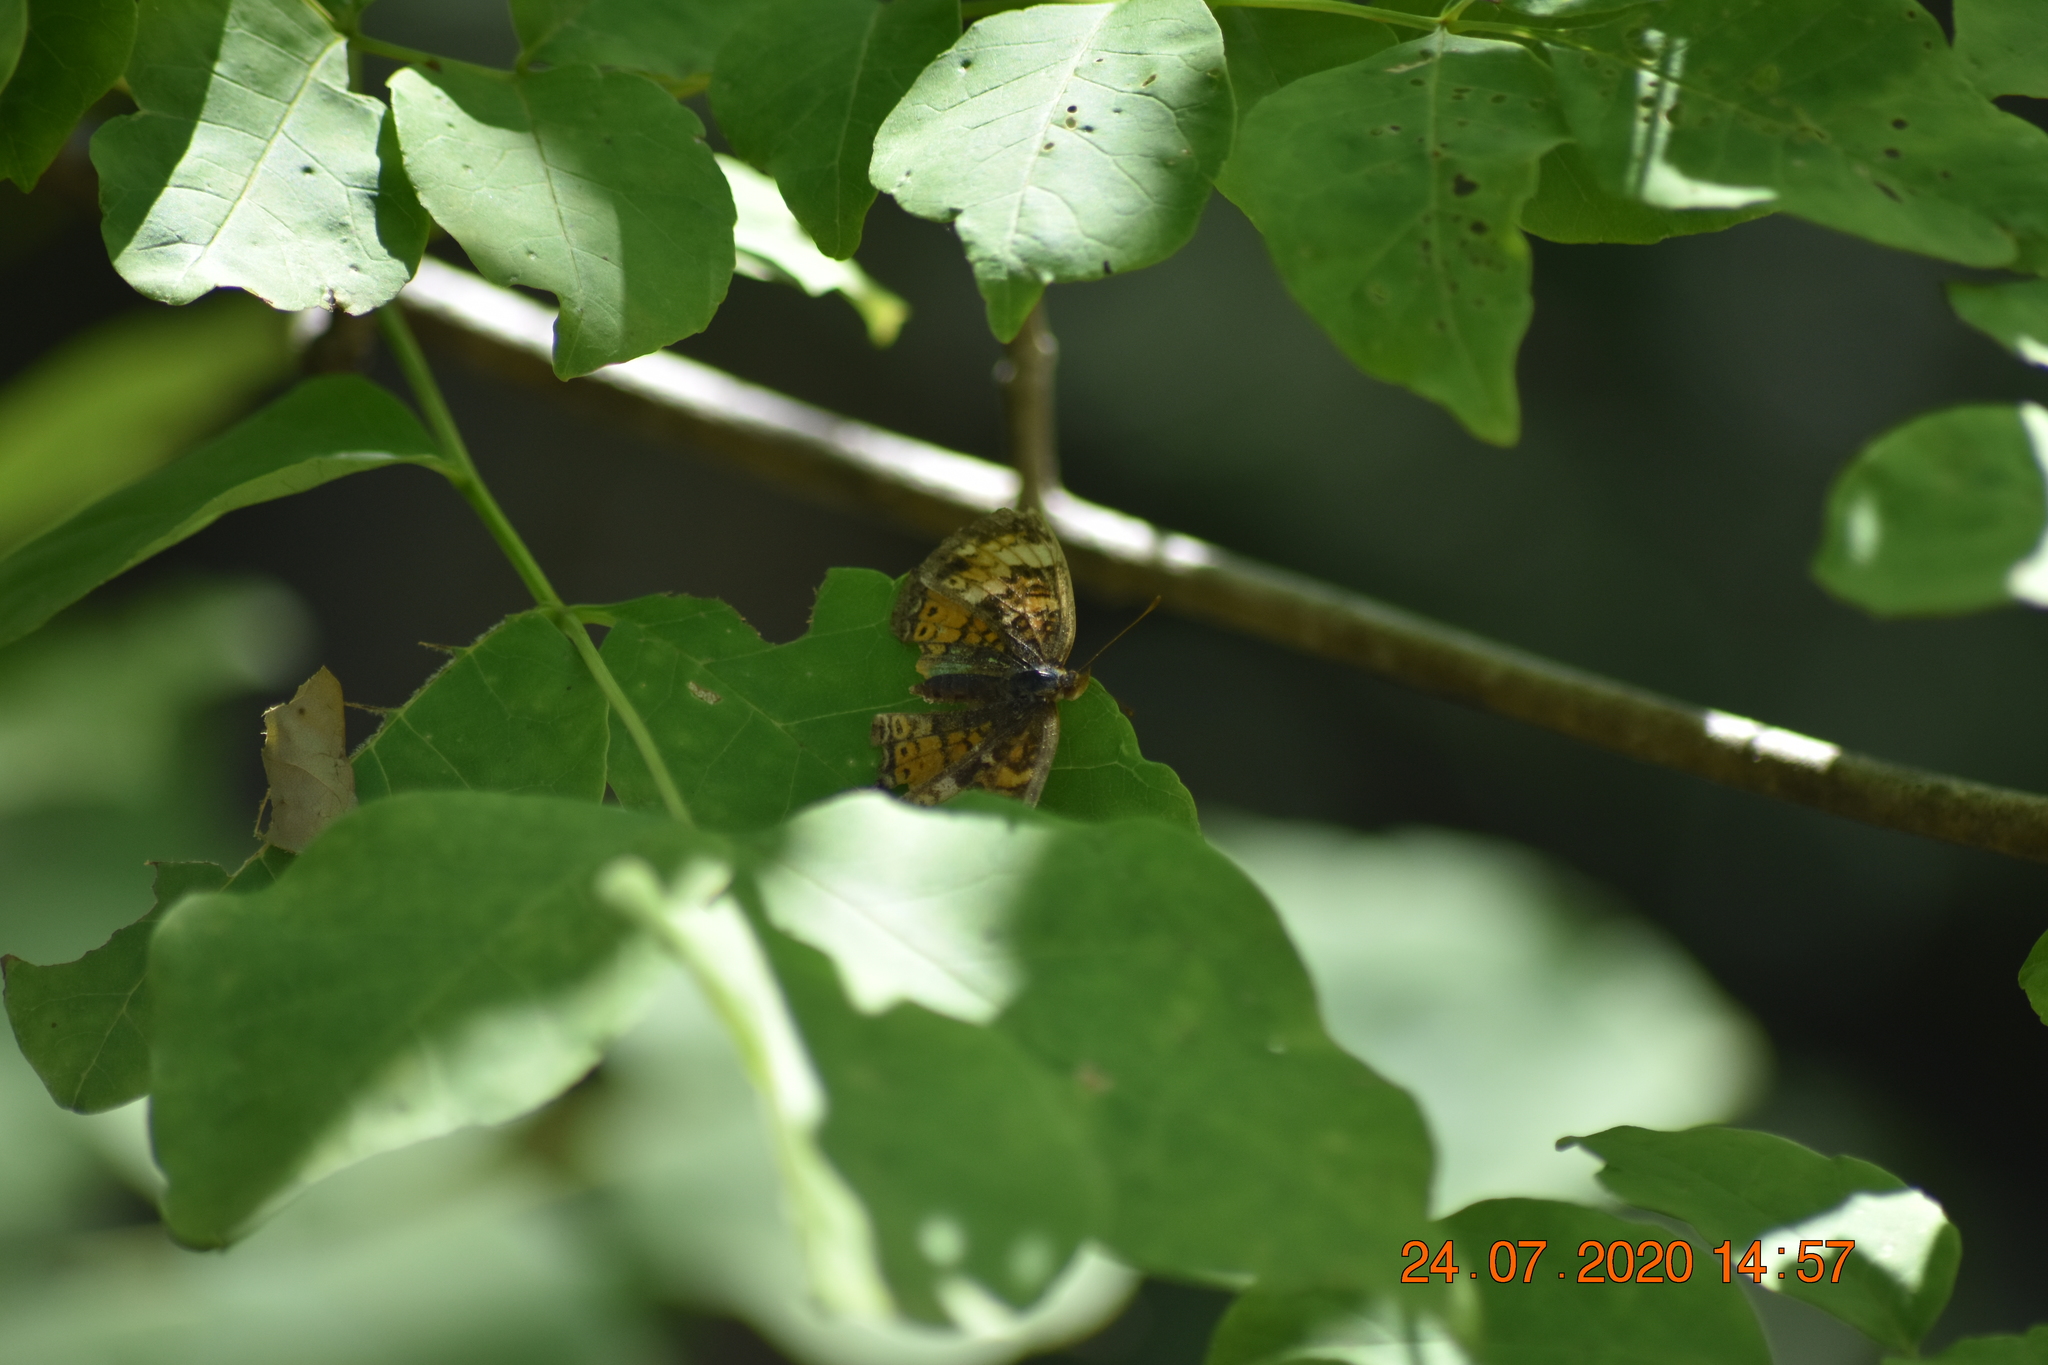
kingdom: Animalia
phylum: Arthropoda
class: Insecta
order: Lepidoptera
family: Nymphalidae
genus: Phyciodes
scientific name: Phyciodes tharos
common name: Pearl crescent
